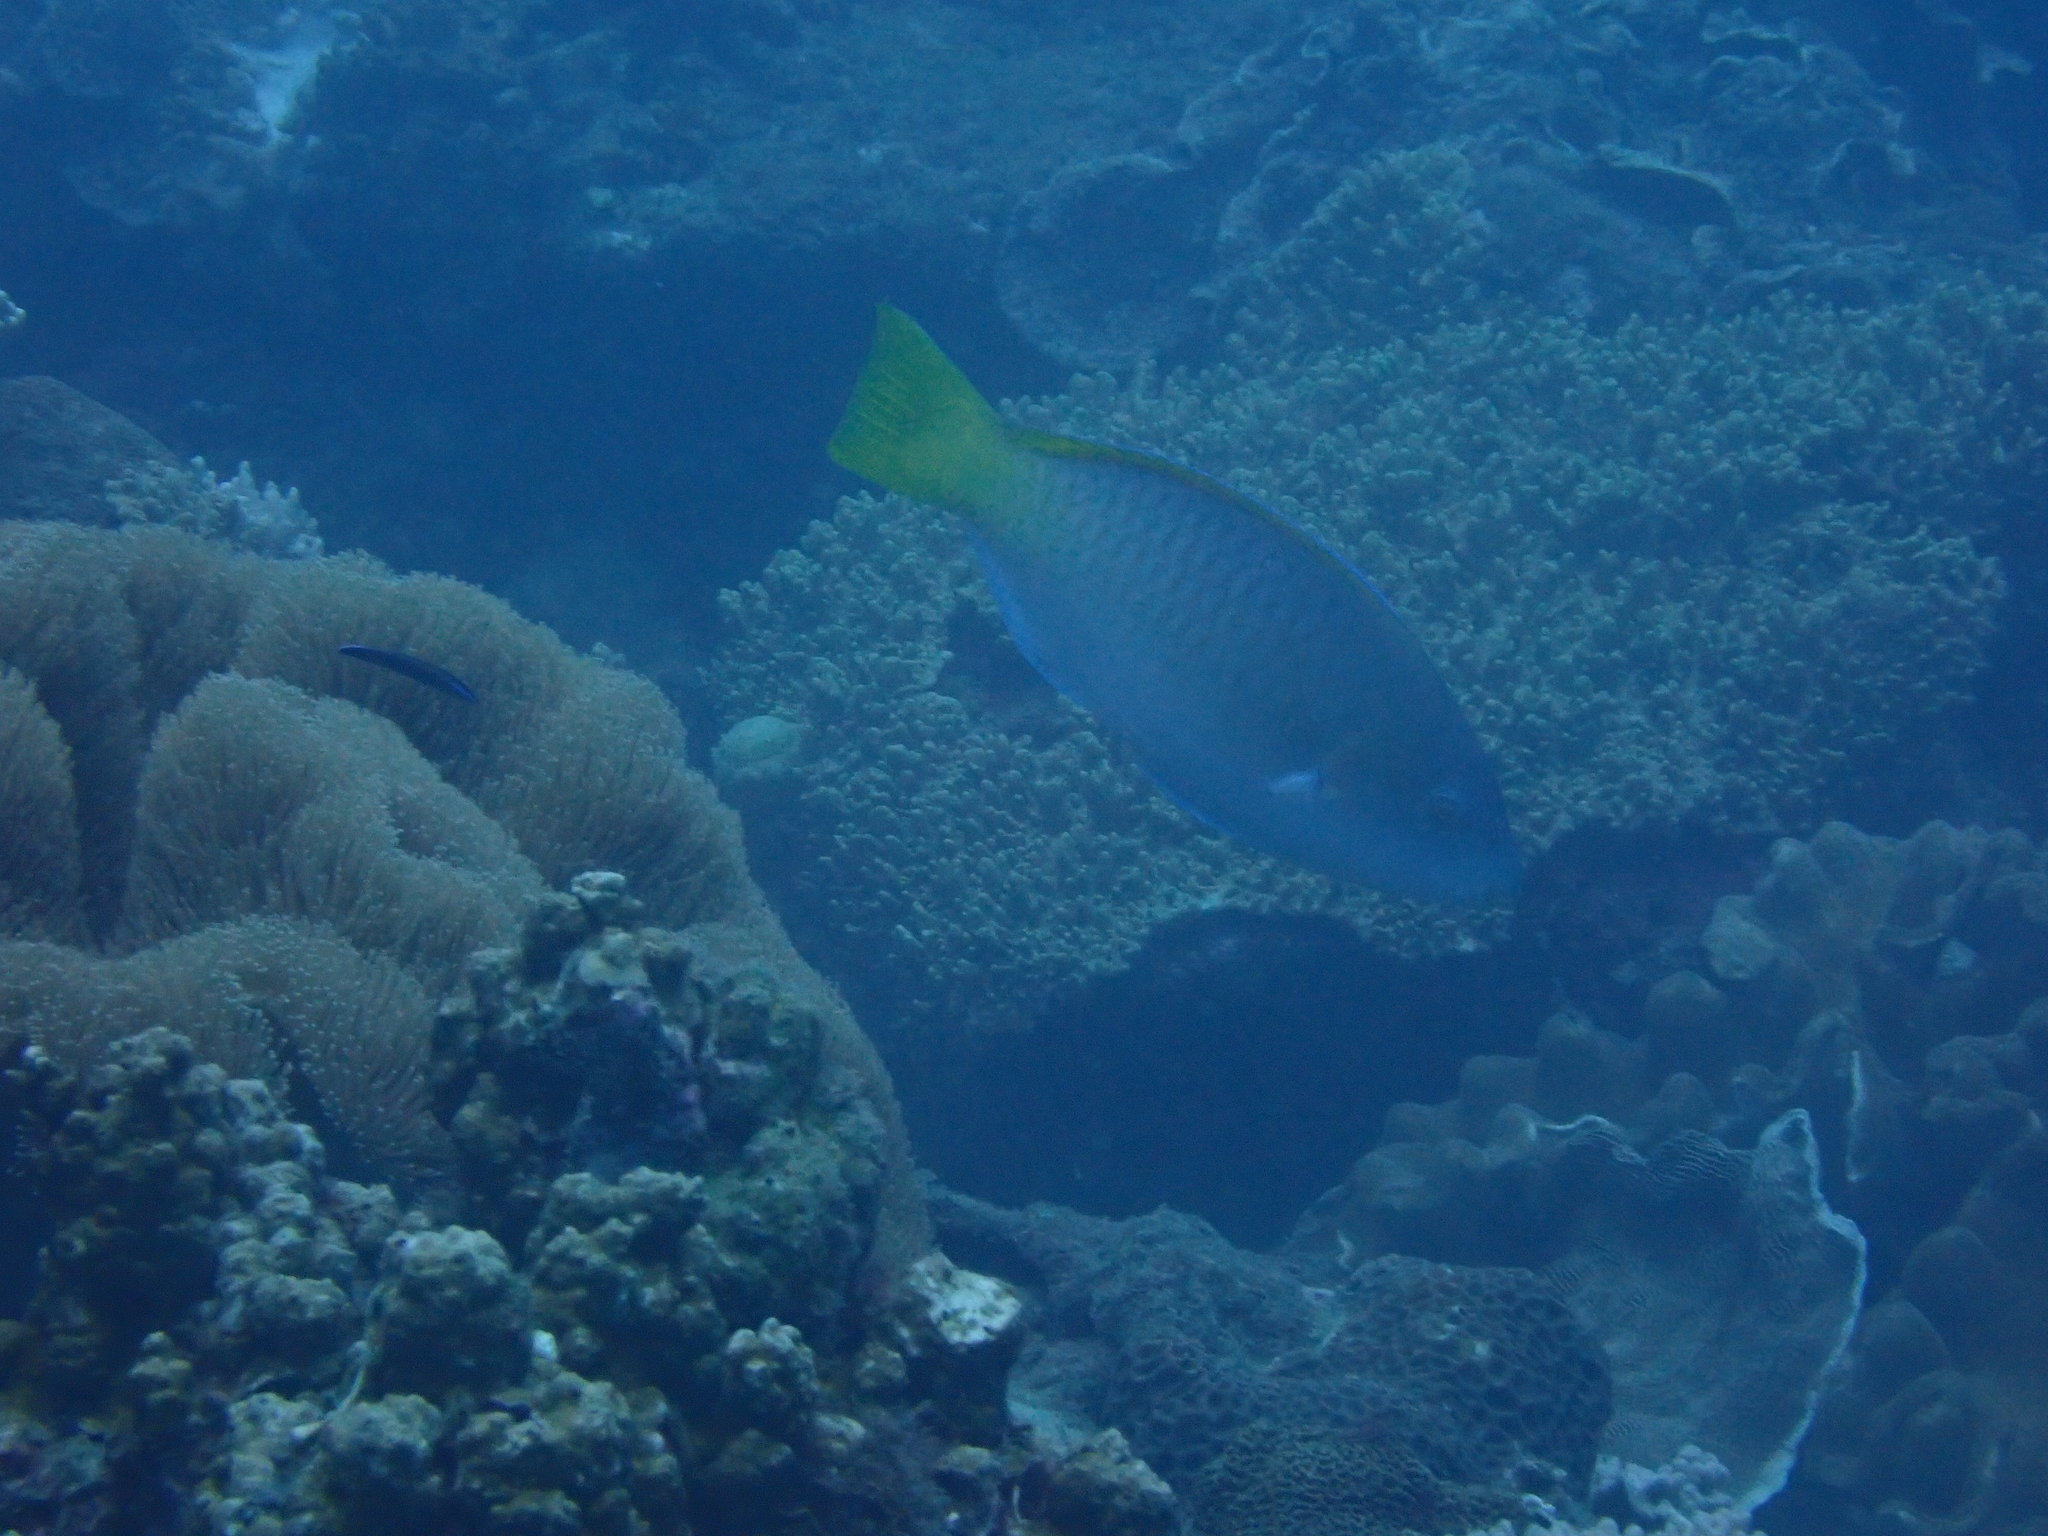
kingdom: Animalia
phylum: Chordata
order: Perciformes
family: Scaridae
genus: Hipposcarus
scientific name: Hipposcarus longiceps
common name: Pacific longnose parrotfish
